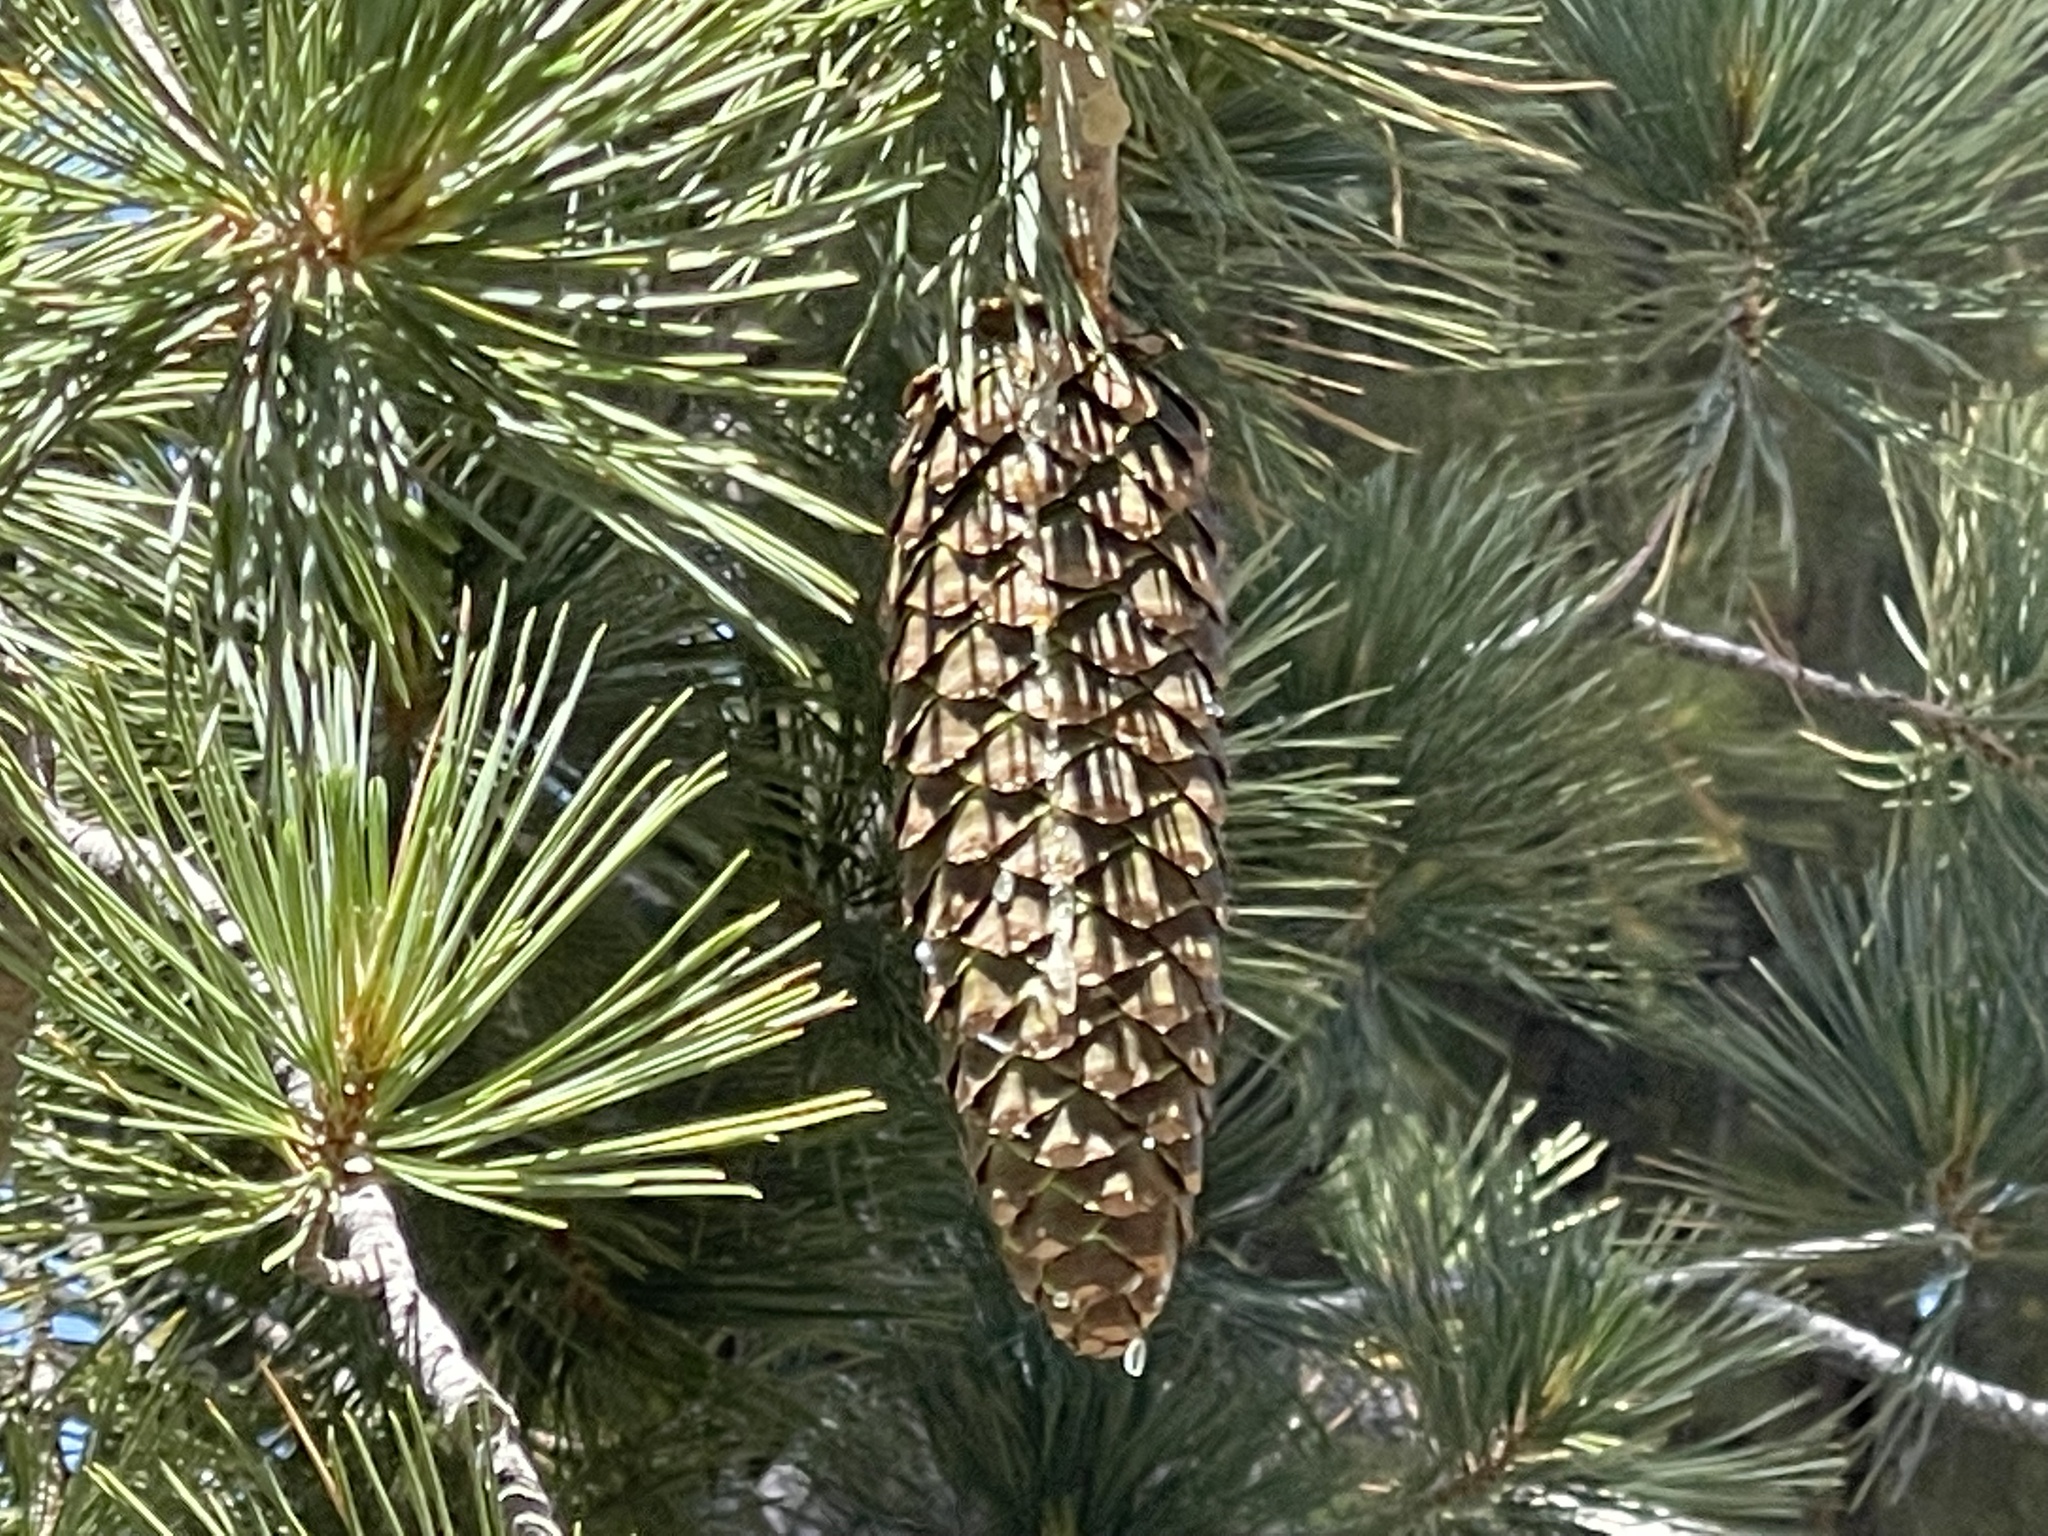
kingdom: Plantae
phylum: Tracheophyta
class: Pinopsida
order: Pinales
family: Pinaceae
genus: Pinus
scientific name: Pinus lambertiana
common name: Sugar pine
